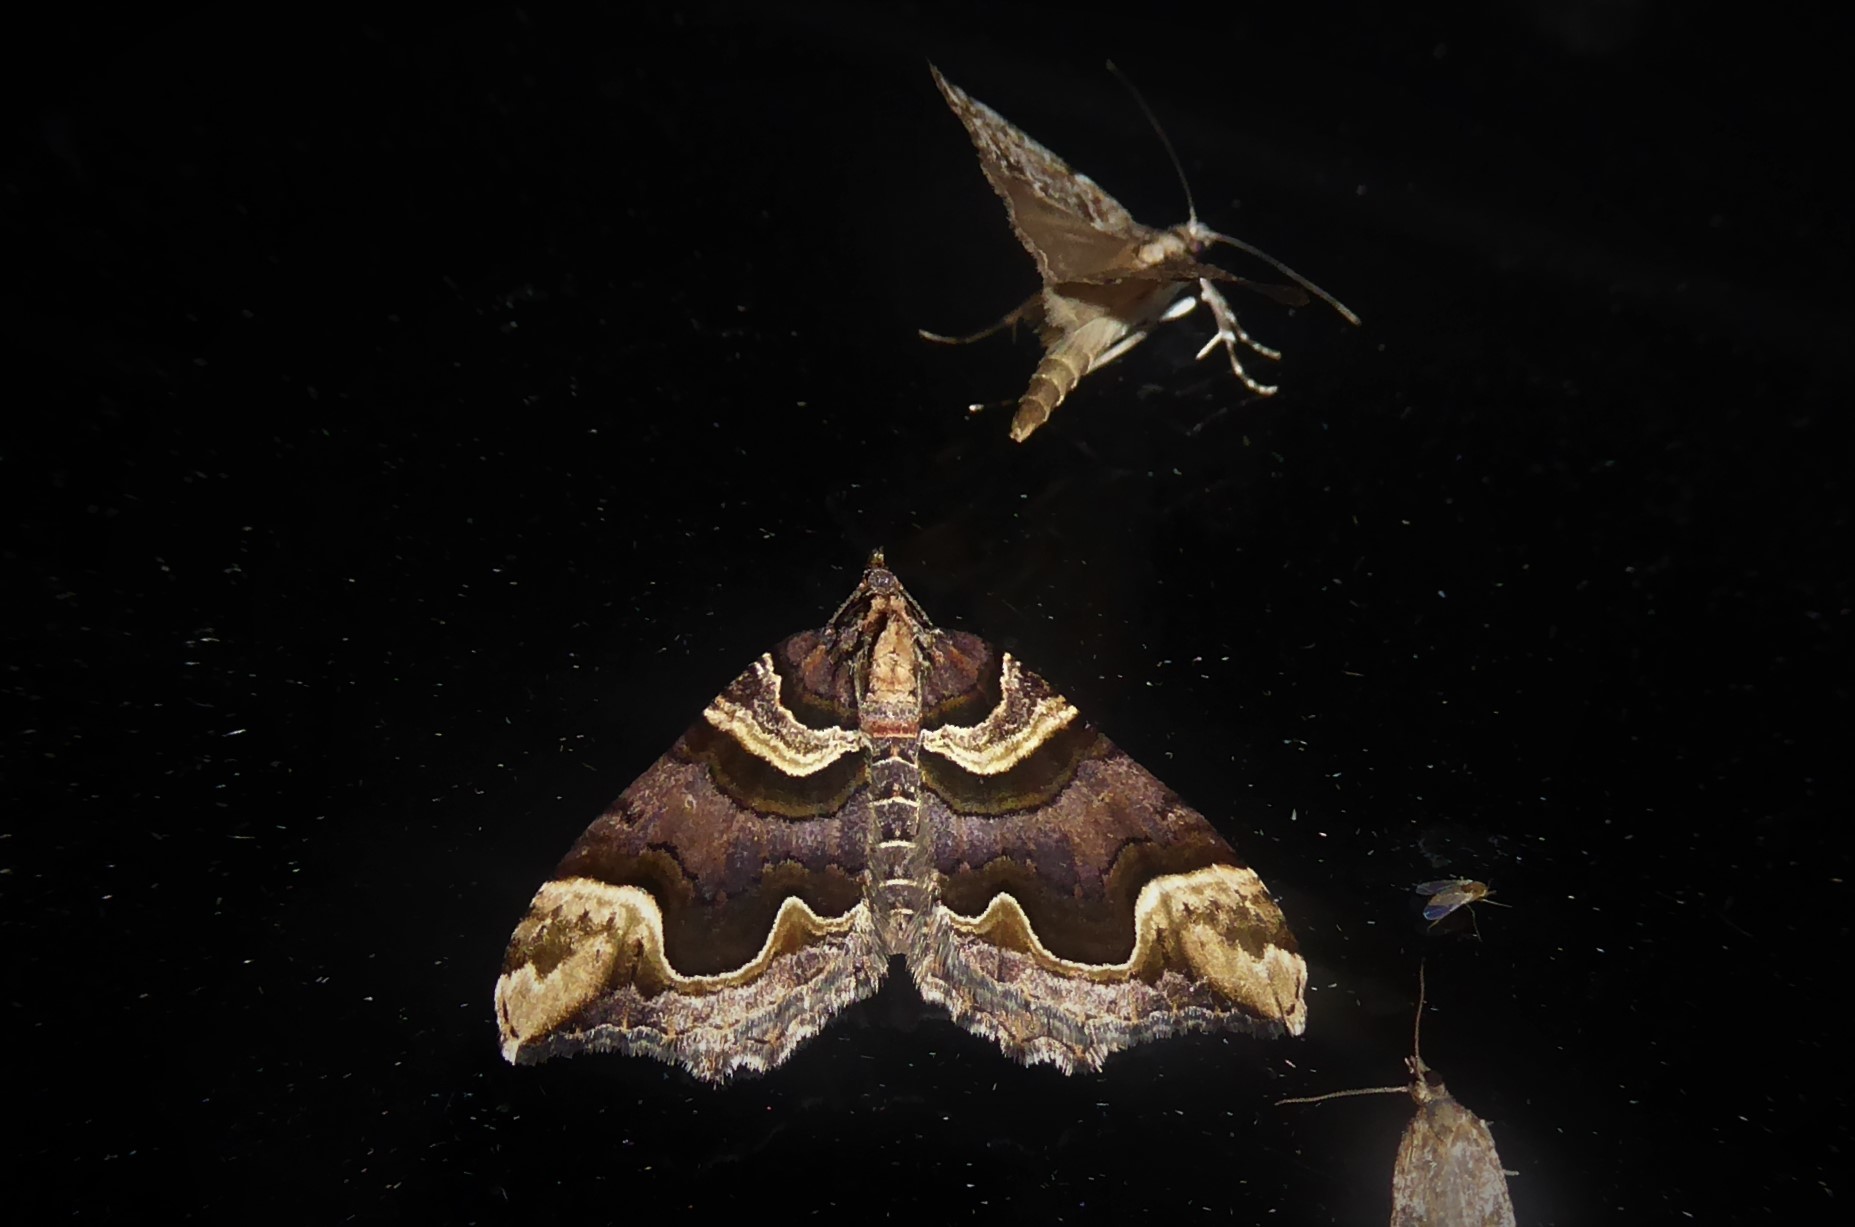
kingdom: Animalia
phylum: Arthropoda
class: Insecta
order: Lepidoptera
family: Geometridae
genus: Asaphodes
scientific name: Asaphodes chlamydota
